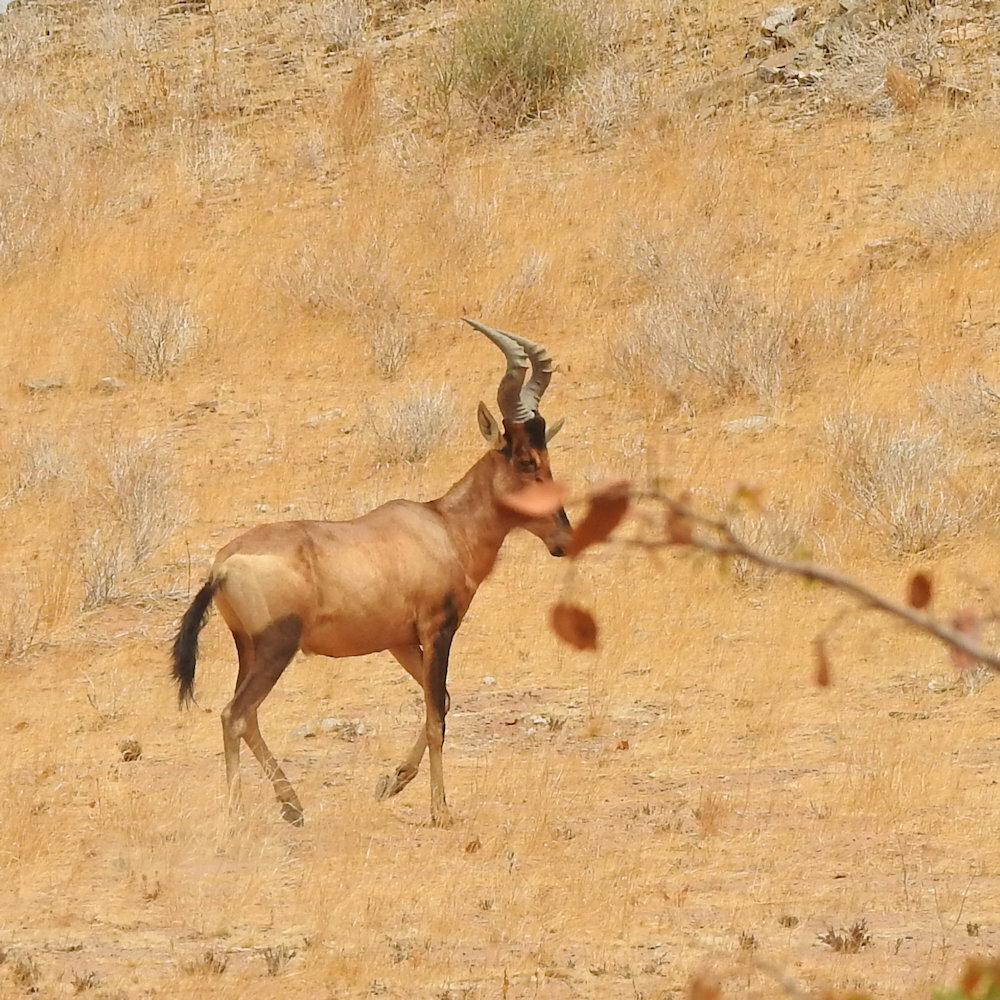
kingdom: Animalia
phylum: Chordata
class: Mammalia
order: Artiodactyla
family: Bovidae
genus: Alcelaphus
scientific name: Alcelaphus caama
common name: Red hartebeest
